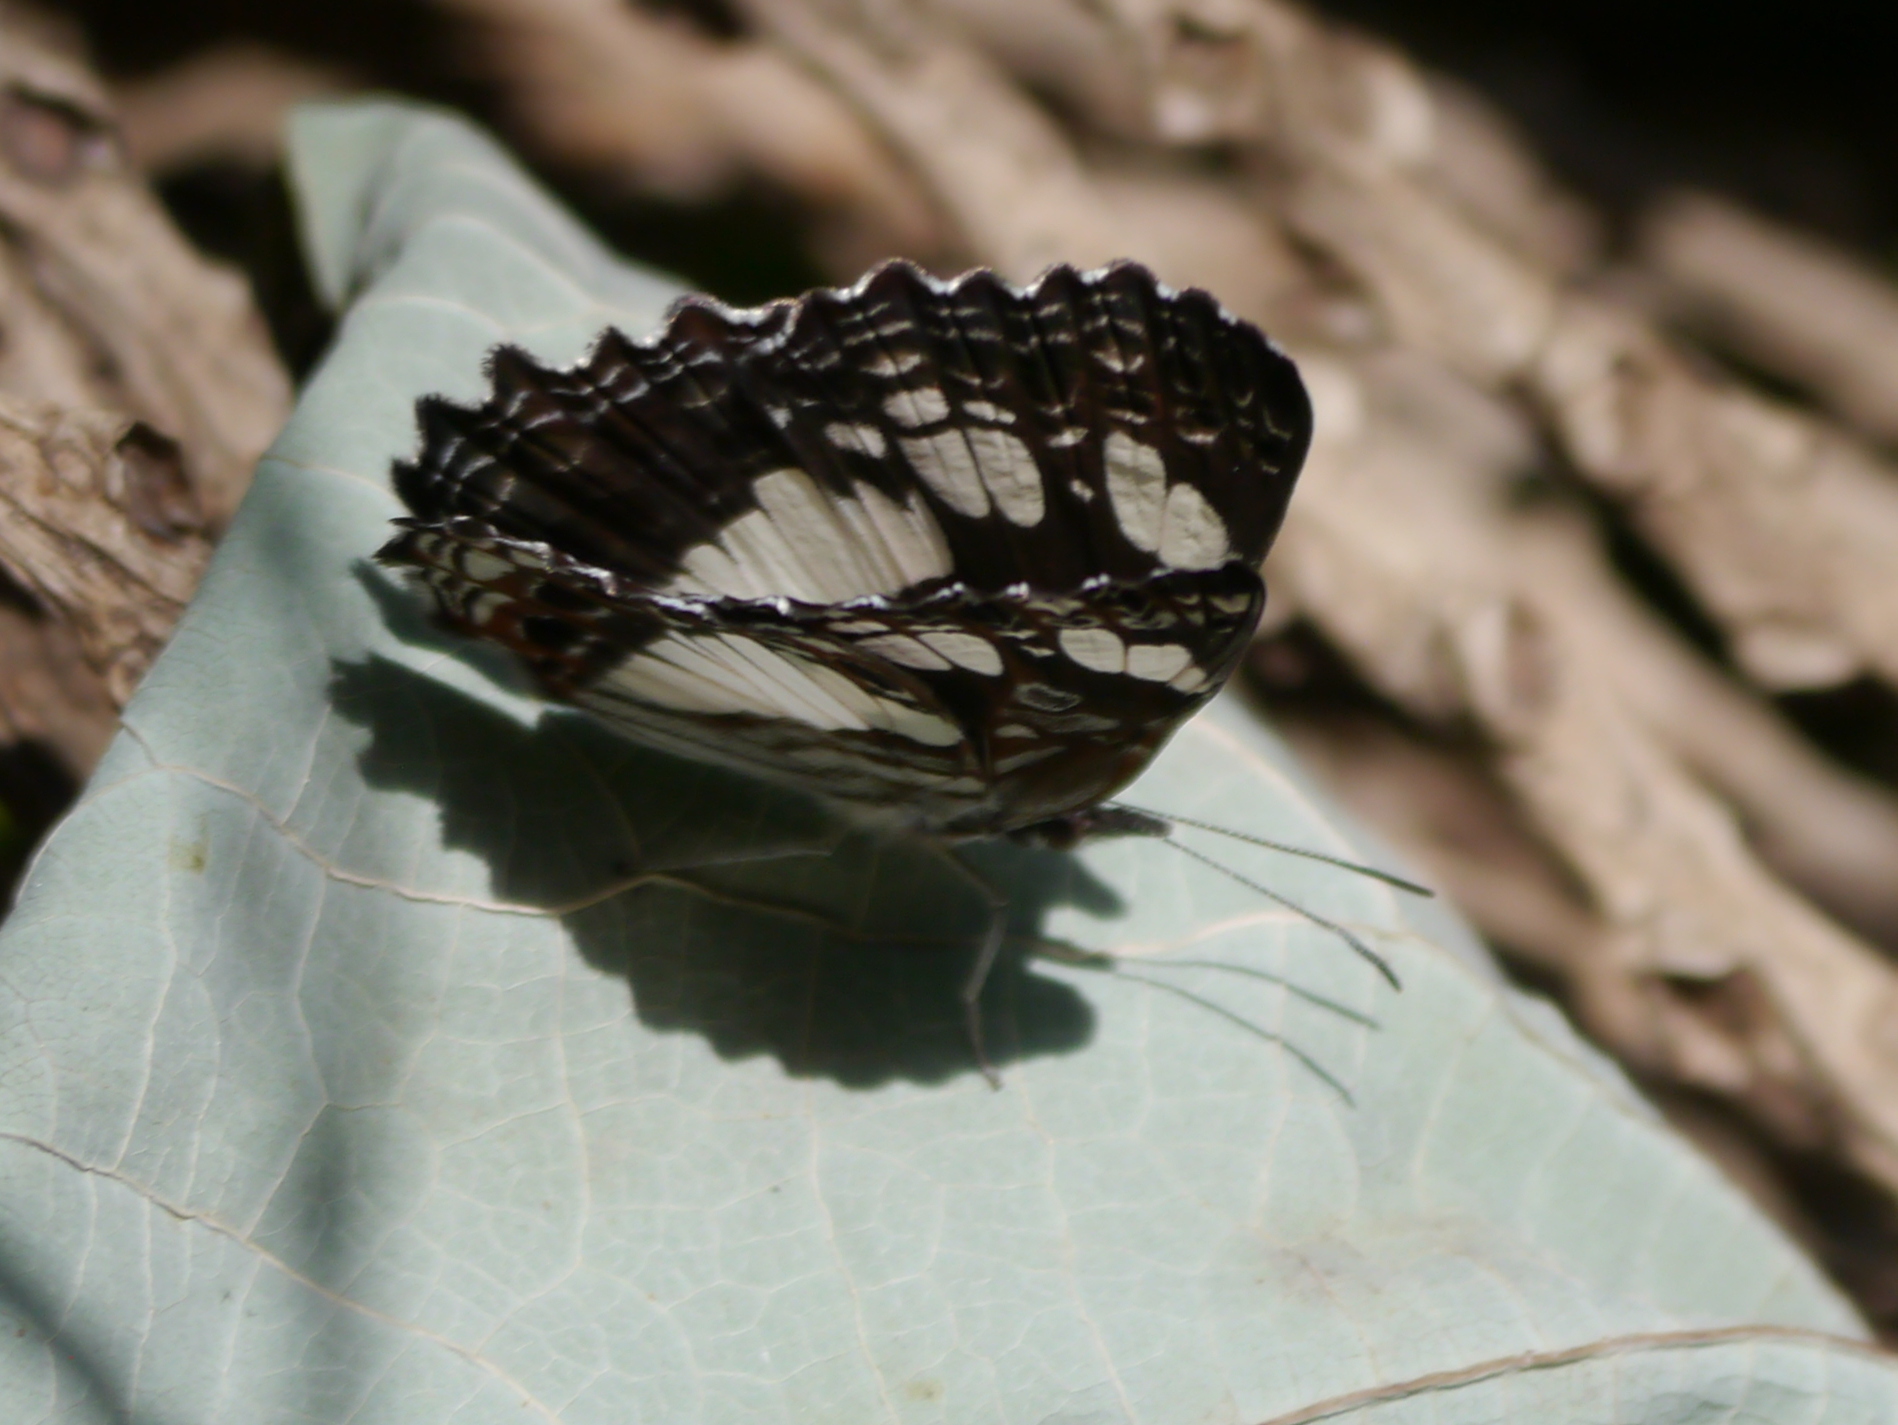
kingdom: Animalia
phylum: Arthropoda
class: Insecta
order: Lepidoptera
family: Nymphalidae
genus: Neptidopsis
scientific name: Neptidopsis ophione
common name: Scalloped false sailor
